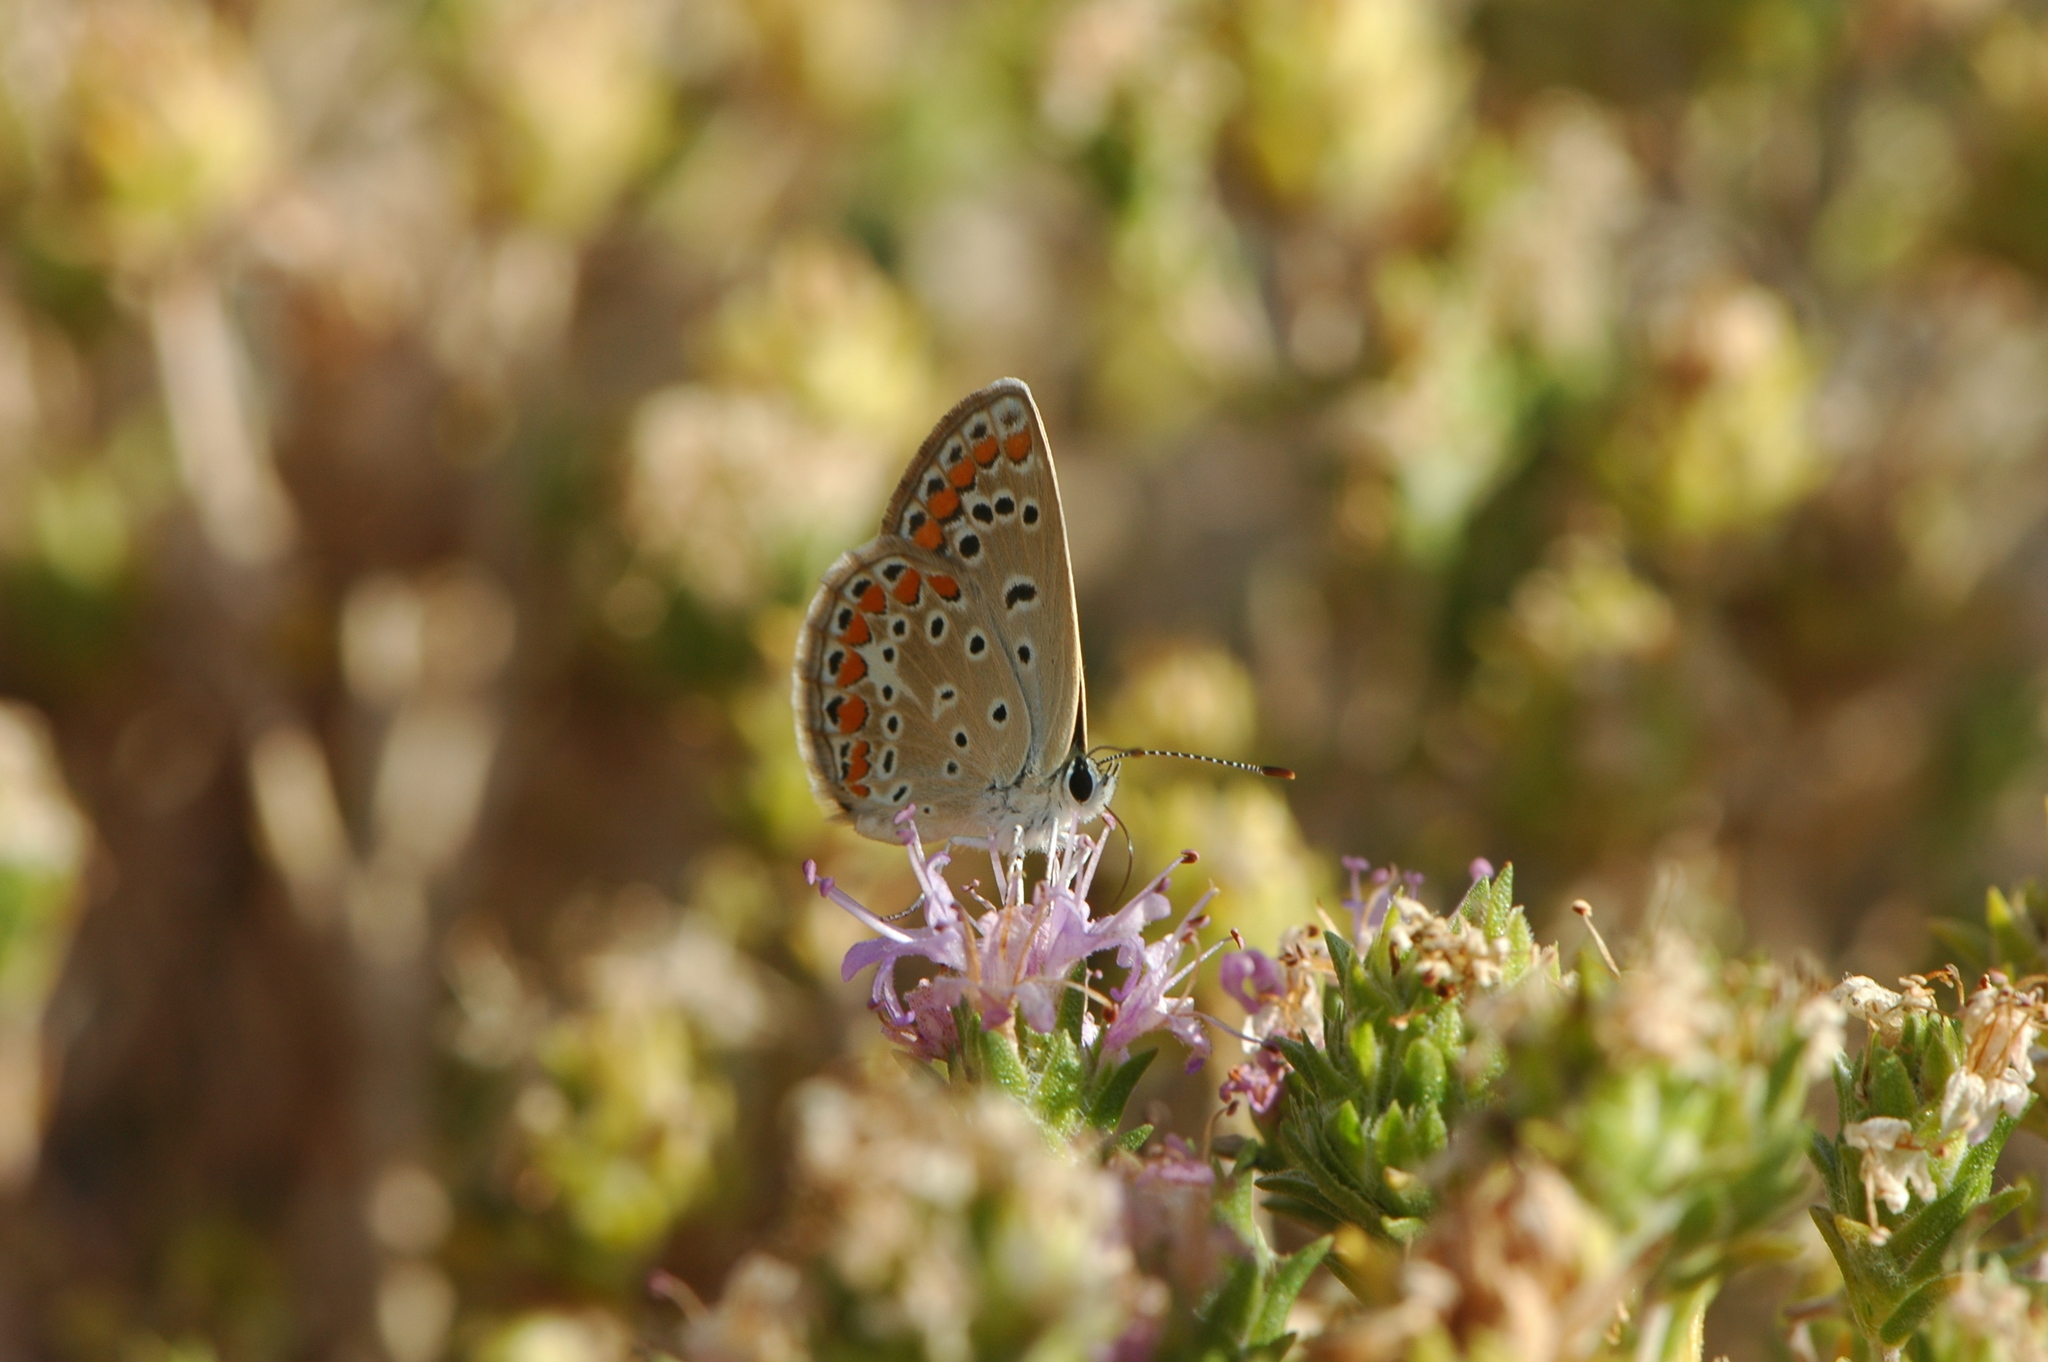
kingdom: Animalia
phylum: Arthropoda
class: Insecta
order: Lepidoptera
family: Lycaenidae
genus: Polyommatus
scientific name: Polyommatus celina
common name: Austaut's blue
